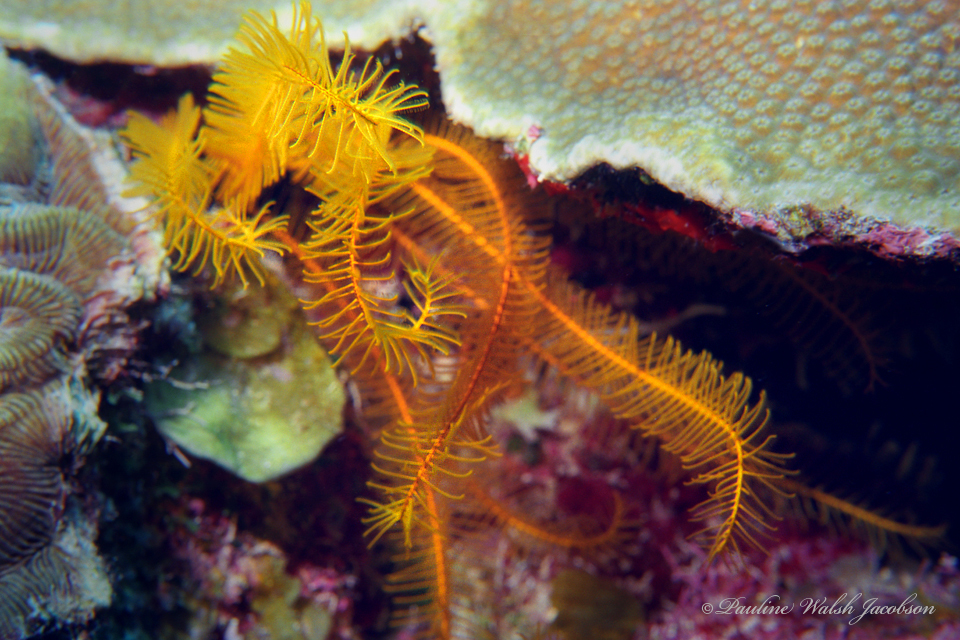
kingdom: Animalia
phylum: Echinodermata
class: Crinoidea
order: Comatulida
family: Comatulidae
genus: Davidaster
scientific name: Davidaster rubiginosus
